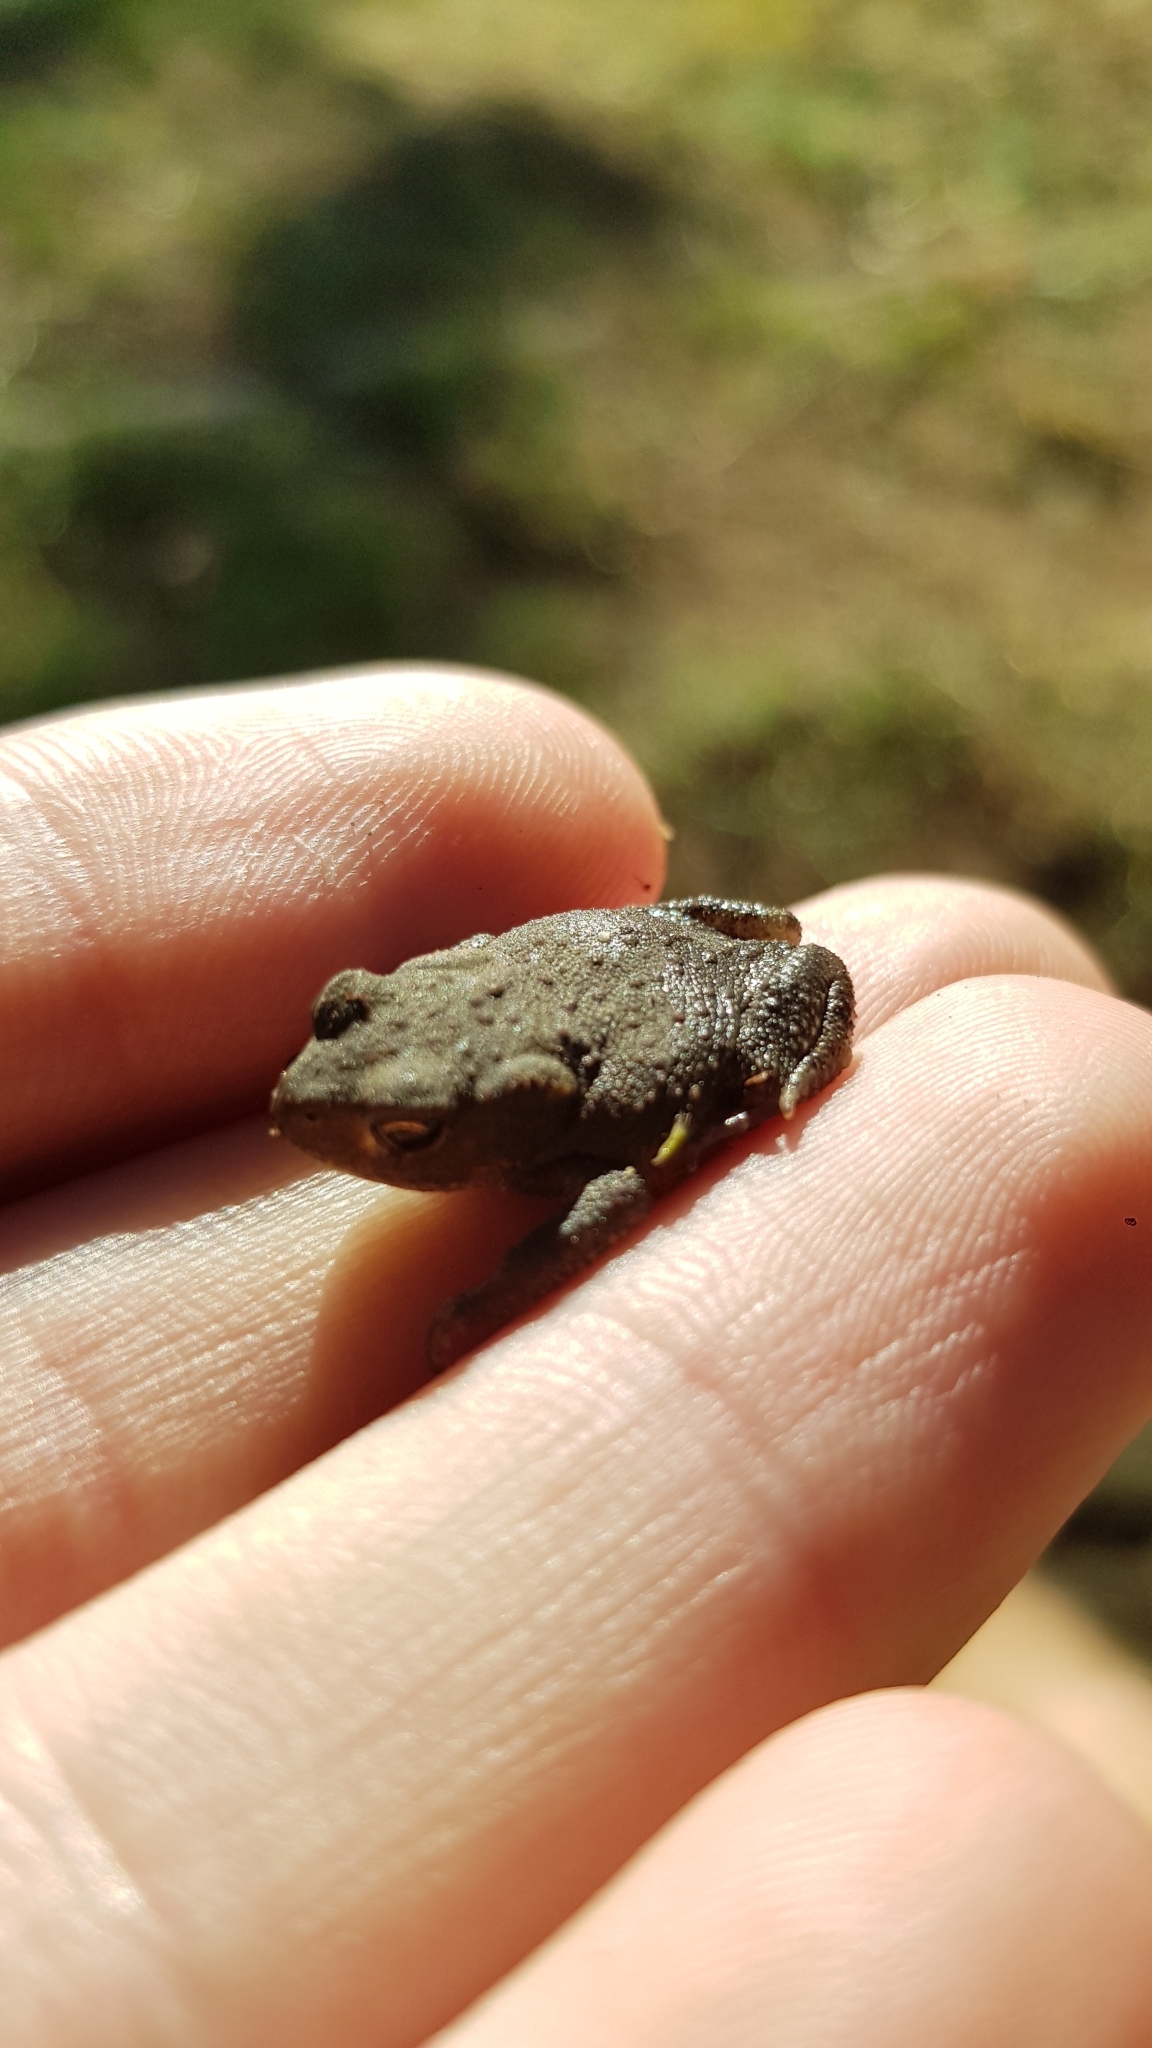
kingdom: Animalia
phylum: Chordata
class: Amphibia
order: Anura
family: Bufonidae
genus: Bufo
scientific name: Bufo bufo
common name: Common toad
